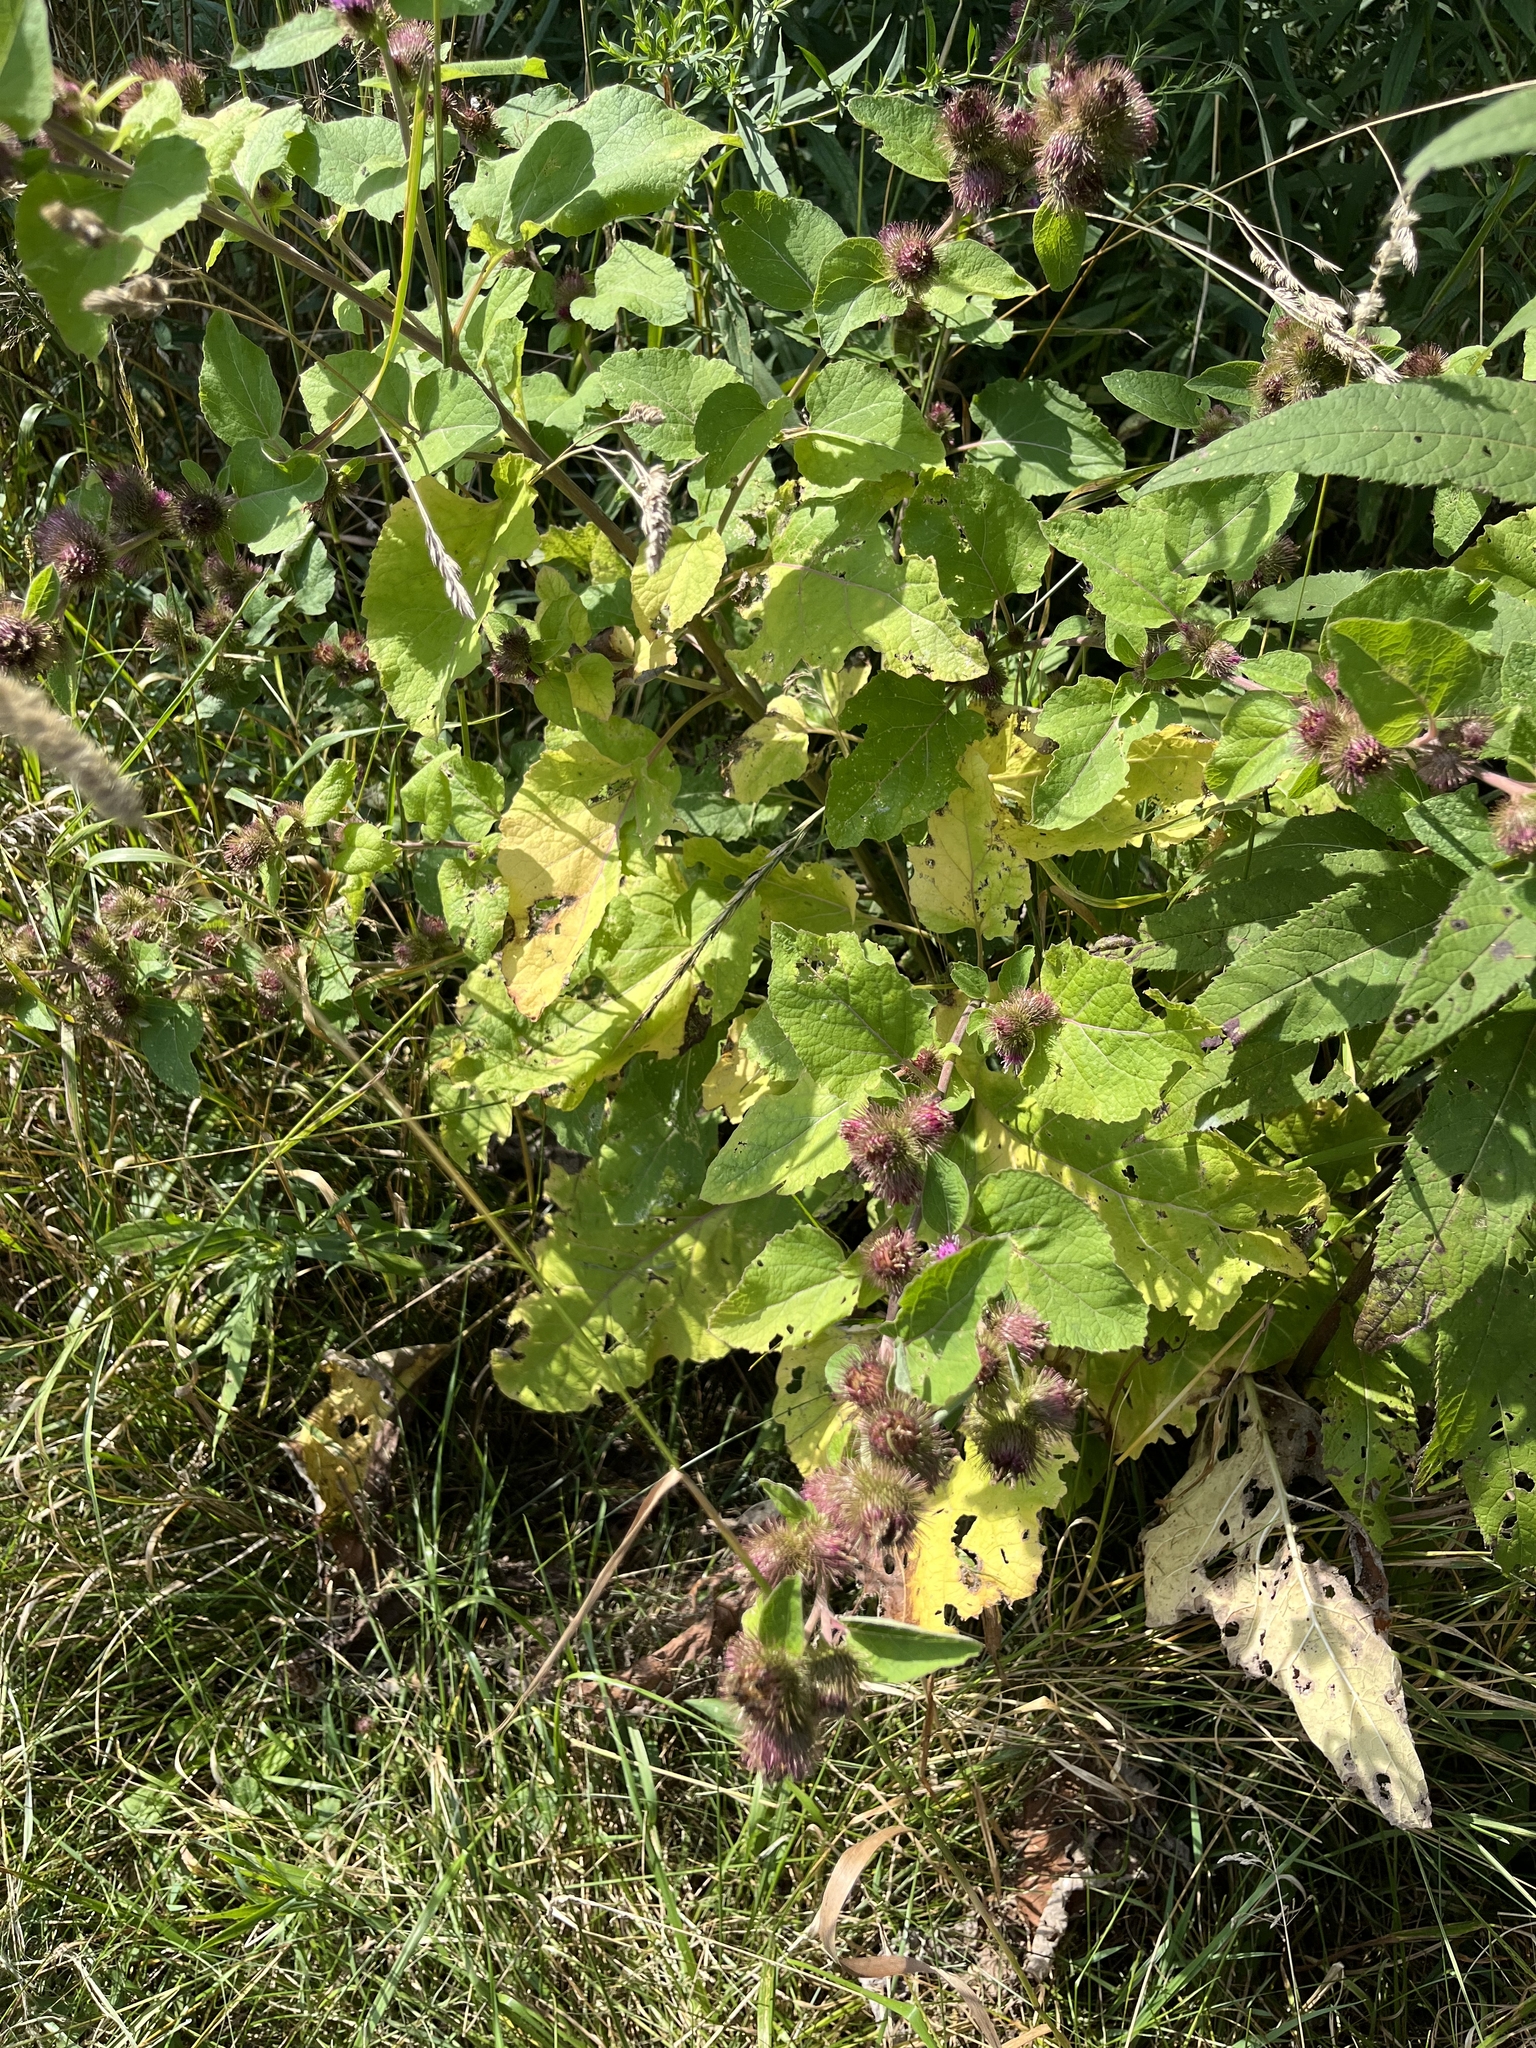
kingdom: Plantae
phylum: Tracheophyta
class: Magnoliopsida
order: Asterales
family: Asteraceae
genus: Arctium
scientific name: Arctium minus
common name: Lesser burdock
